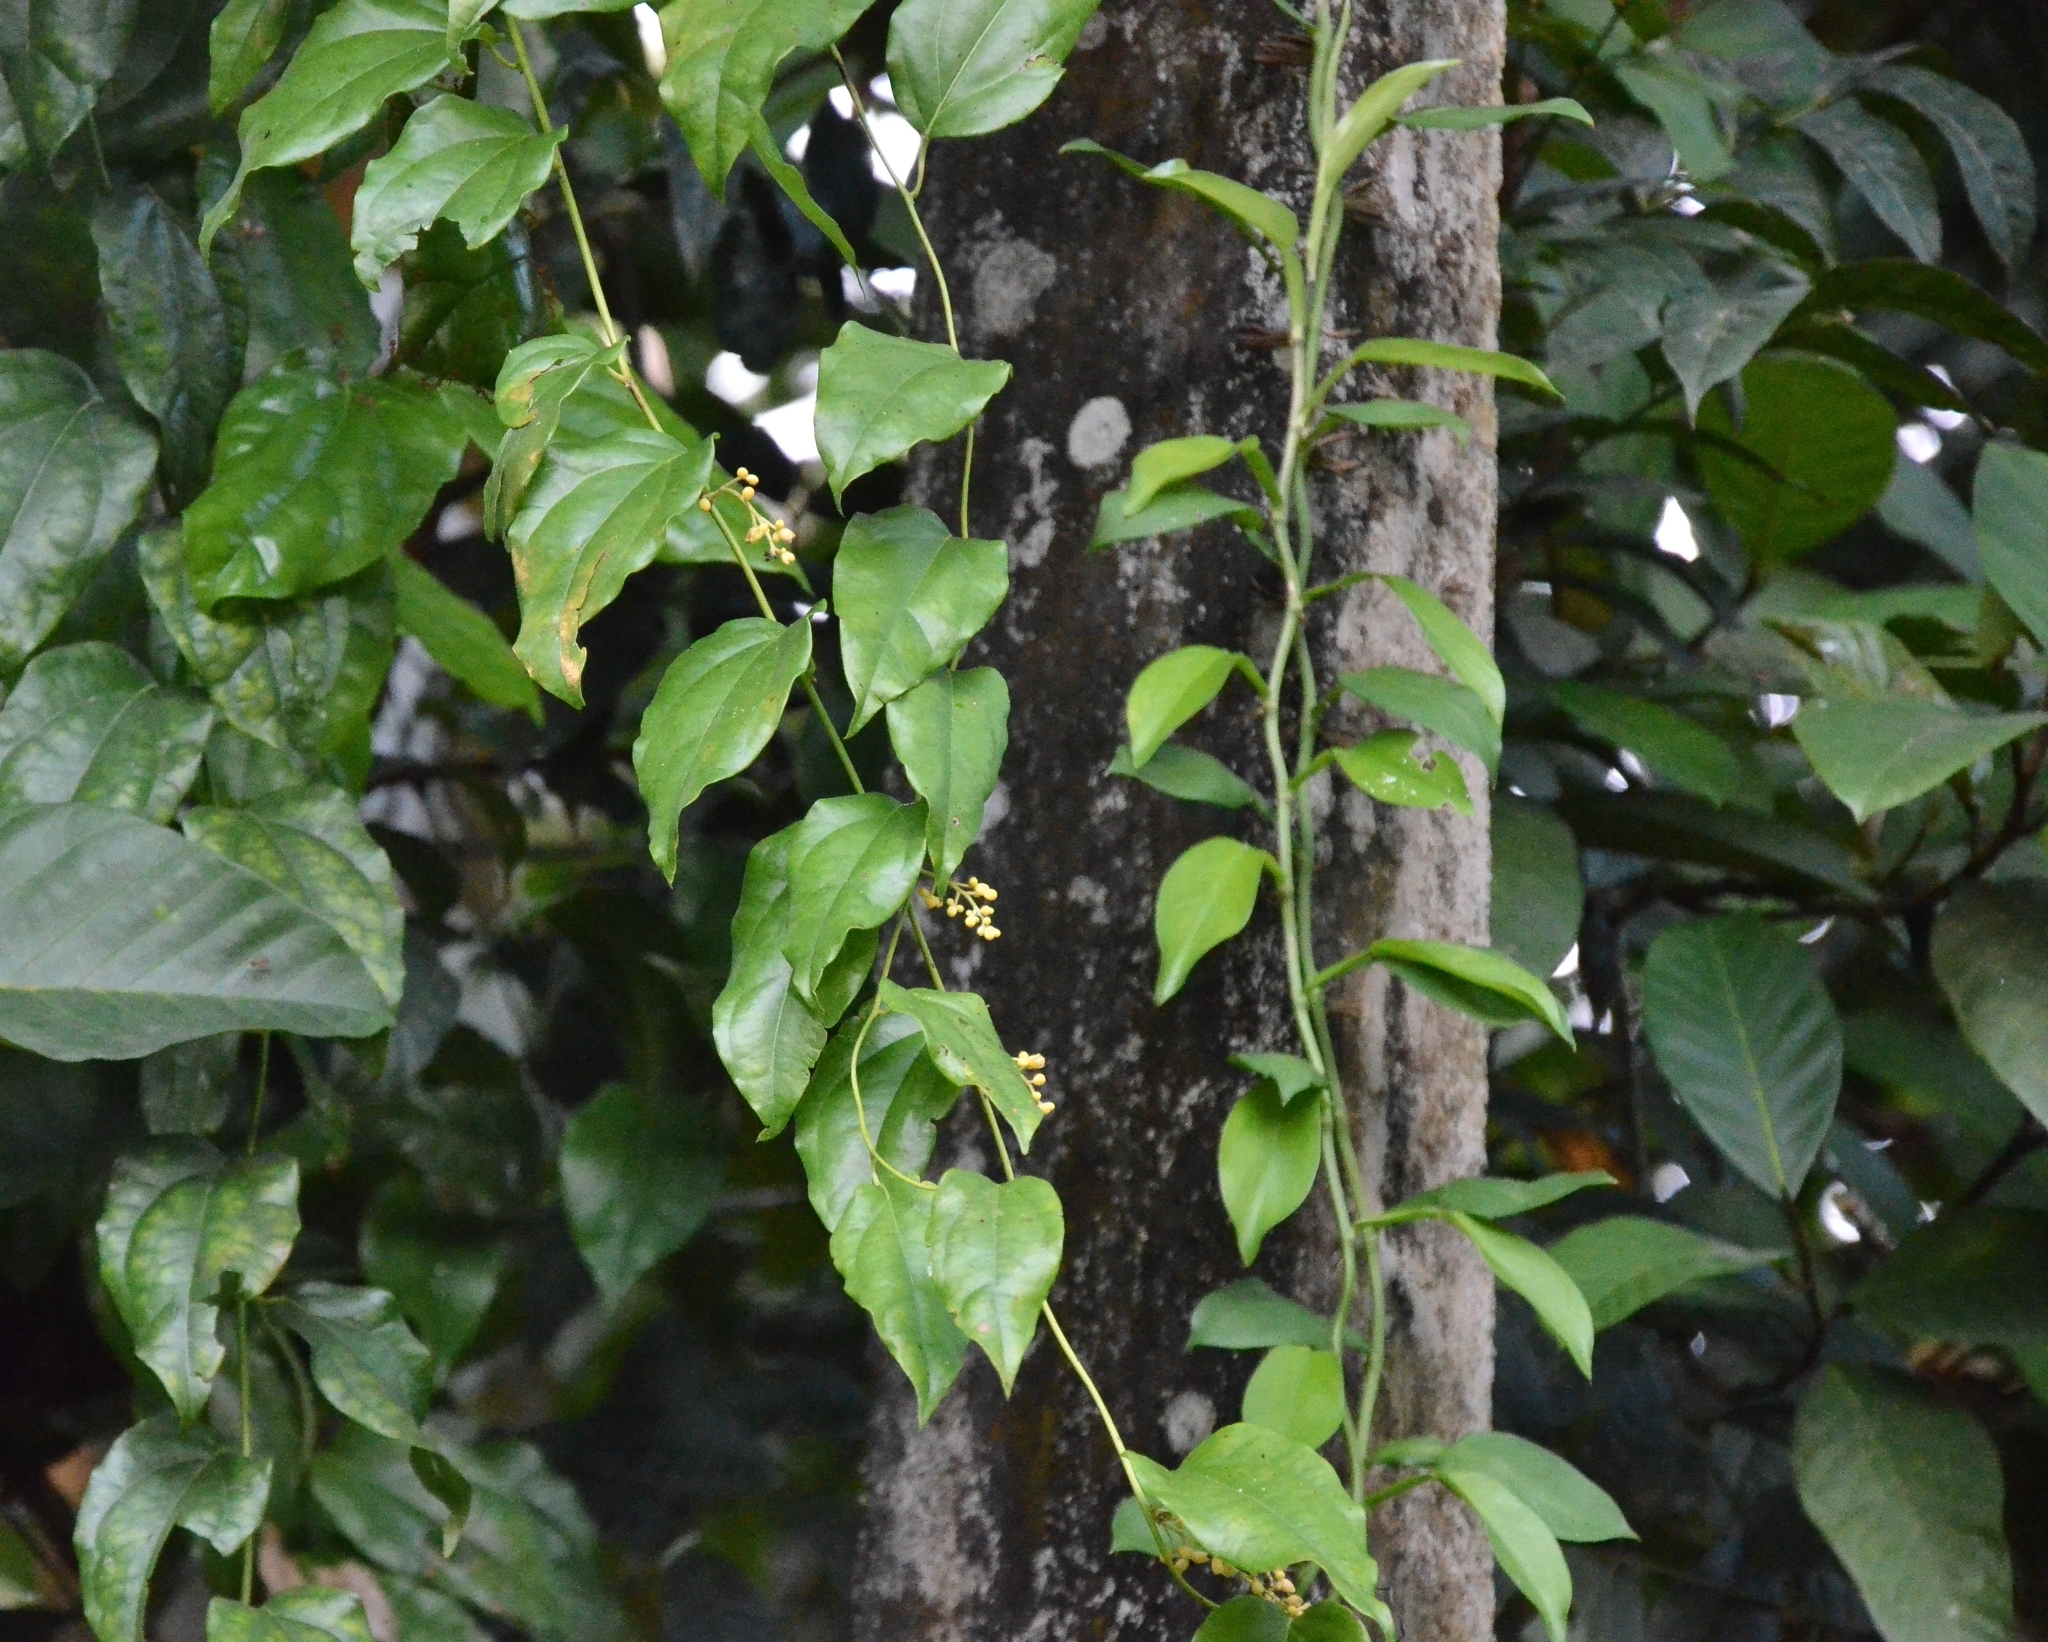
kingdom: Plantae
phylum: Tracheophyta
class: Magnoliopsida
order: Ranunculales
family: Menispermaceae
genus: Tiliacora
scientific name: Tiliacora acuminata
